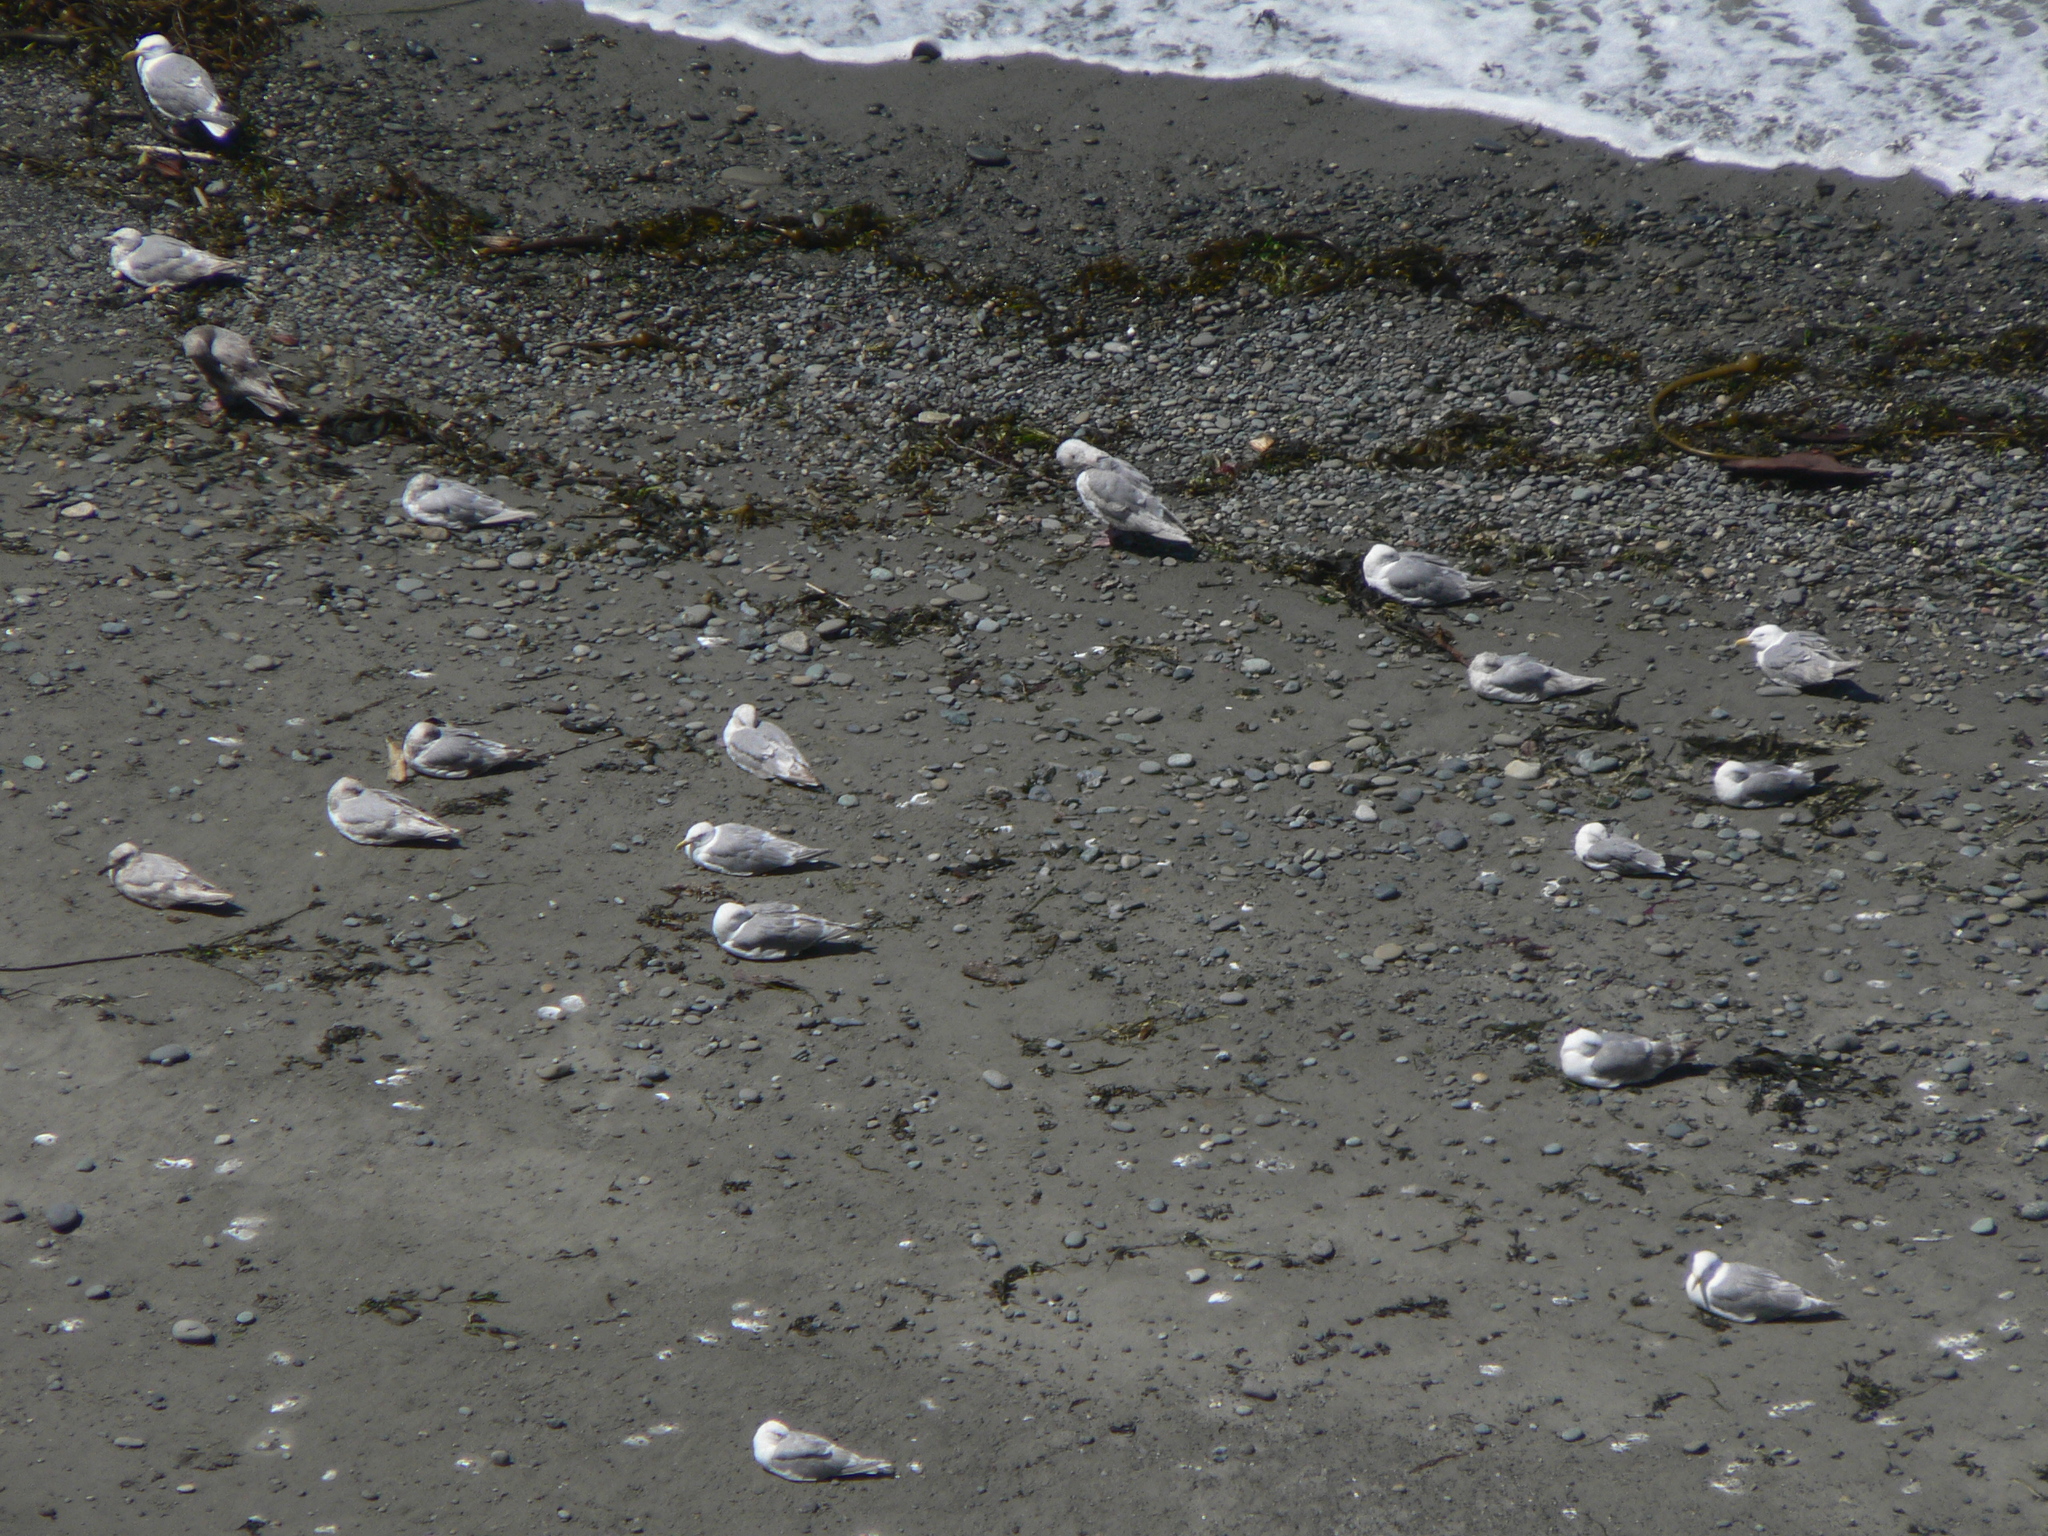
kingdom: Animalia
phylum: Chordata
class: Aves
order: Charadriiformes
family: Laridae
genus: Larus
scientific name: Larus glaucescens
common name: Glaucous-winged gull
